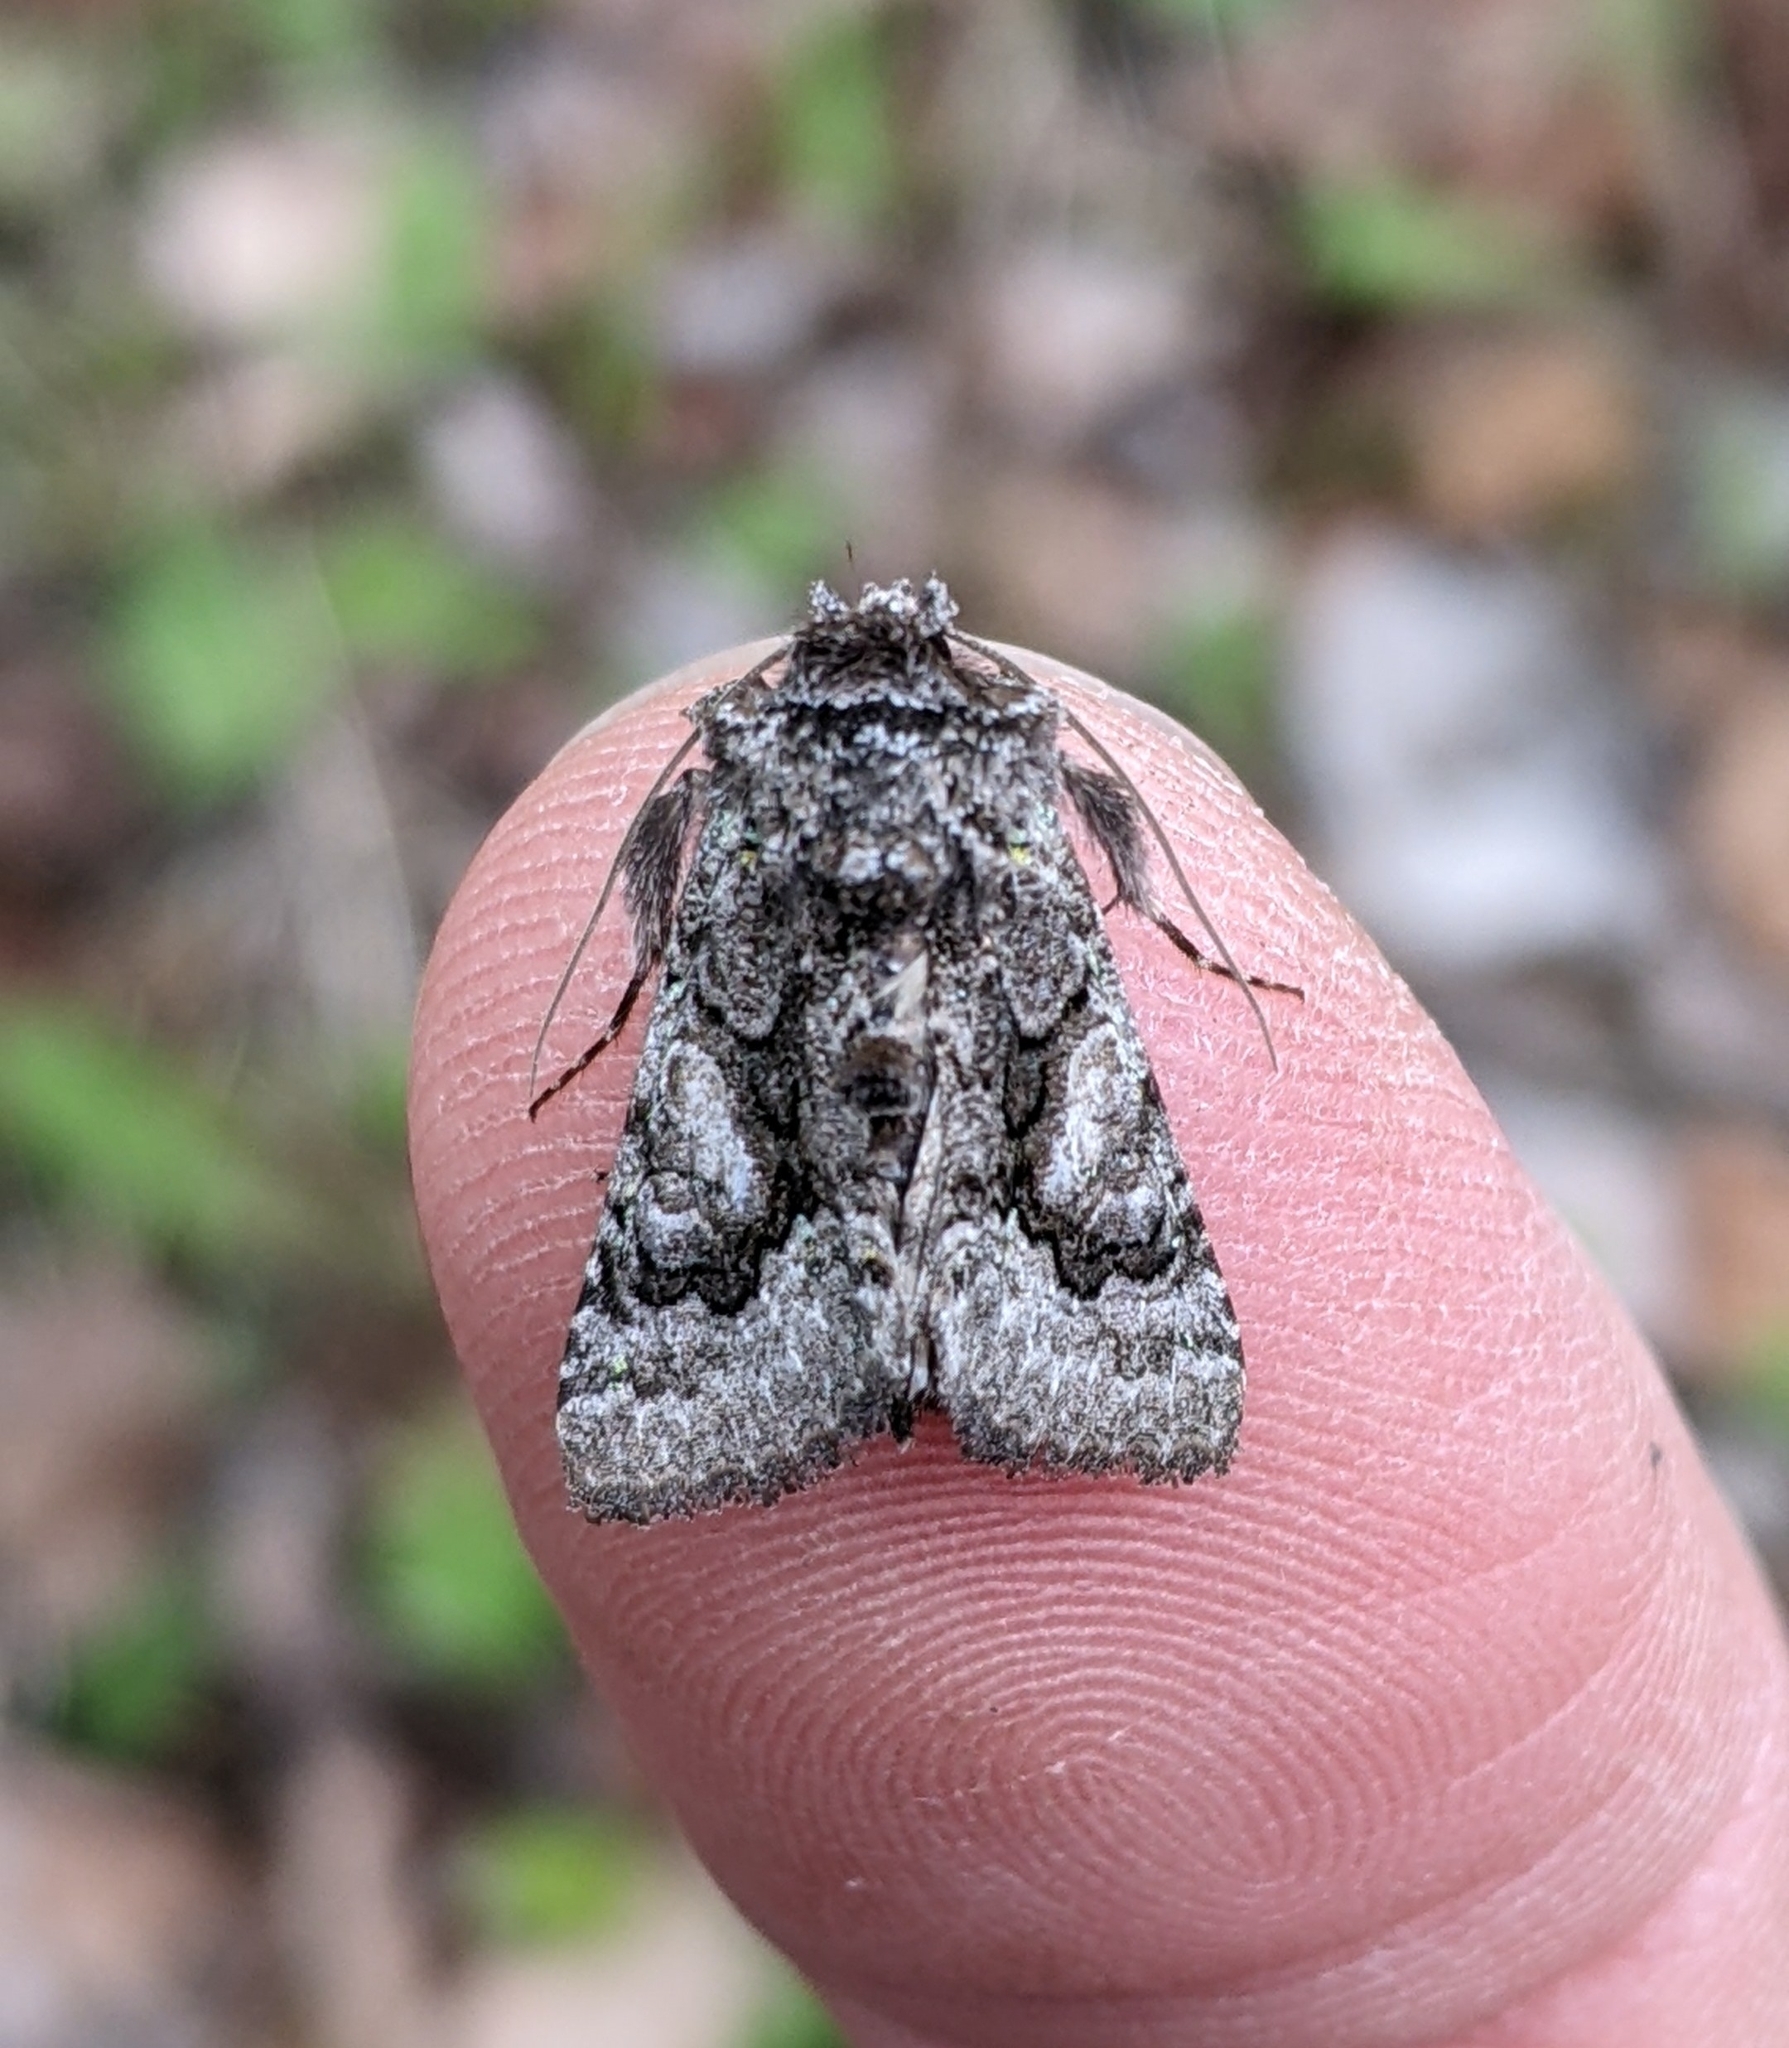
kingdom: Animalia
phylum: Arthropoda
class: Insecta
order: Lepidoptera
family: Noctuidae
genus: Behrensia
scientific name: Behrensia conchiformis
